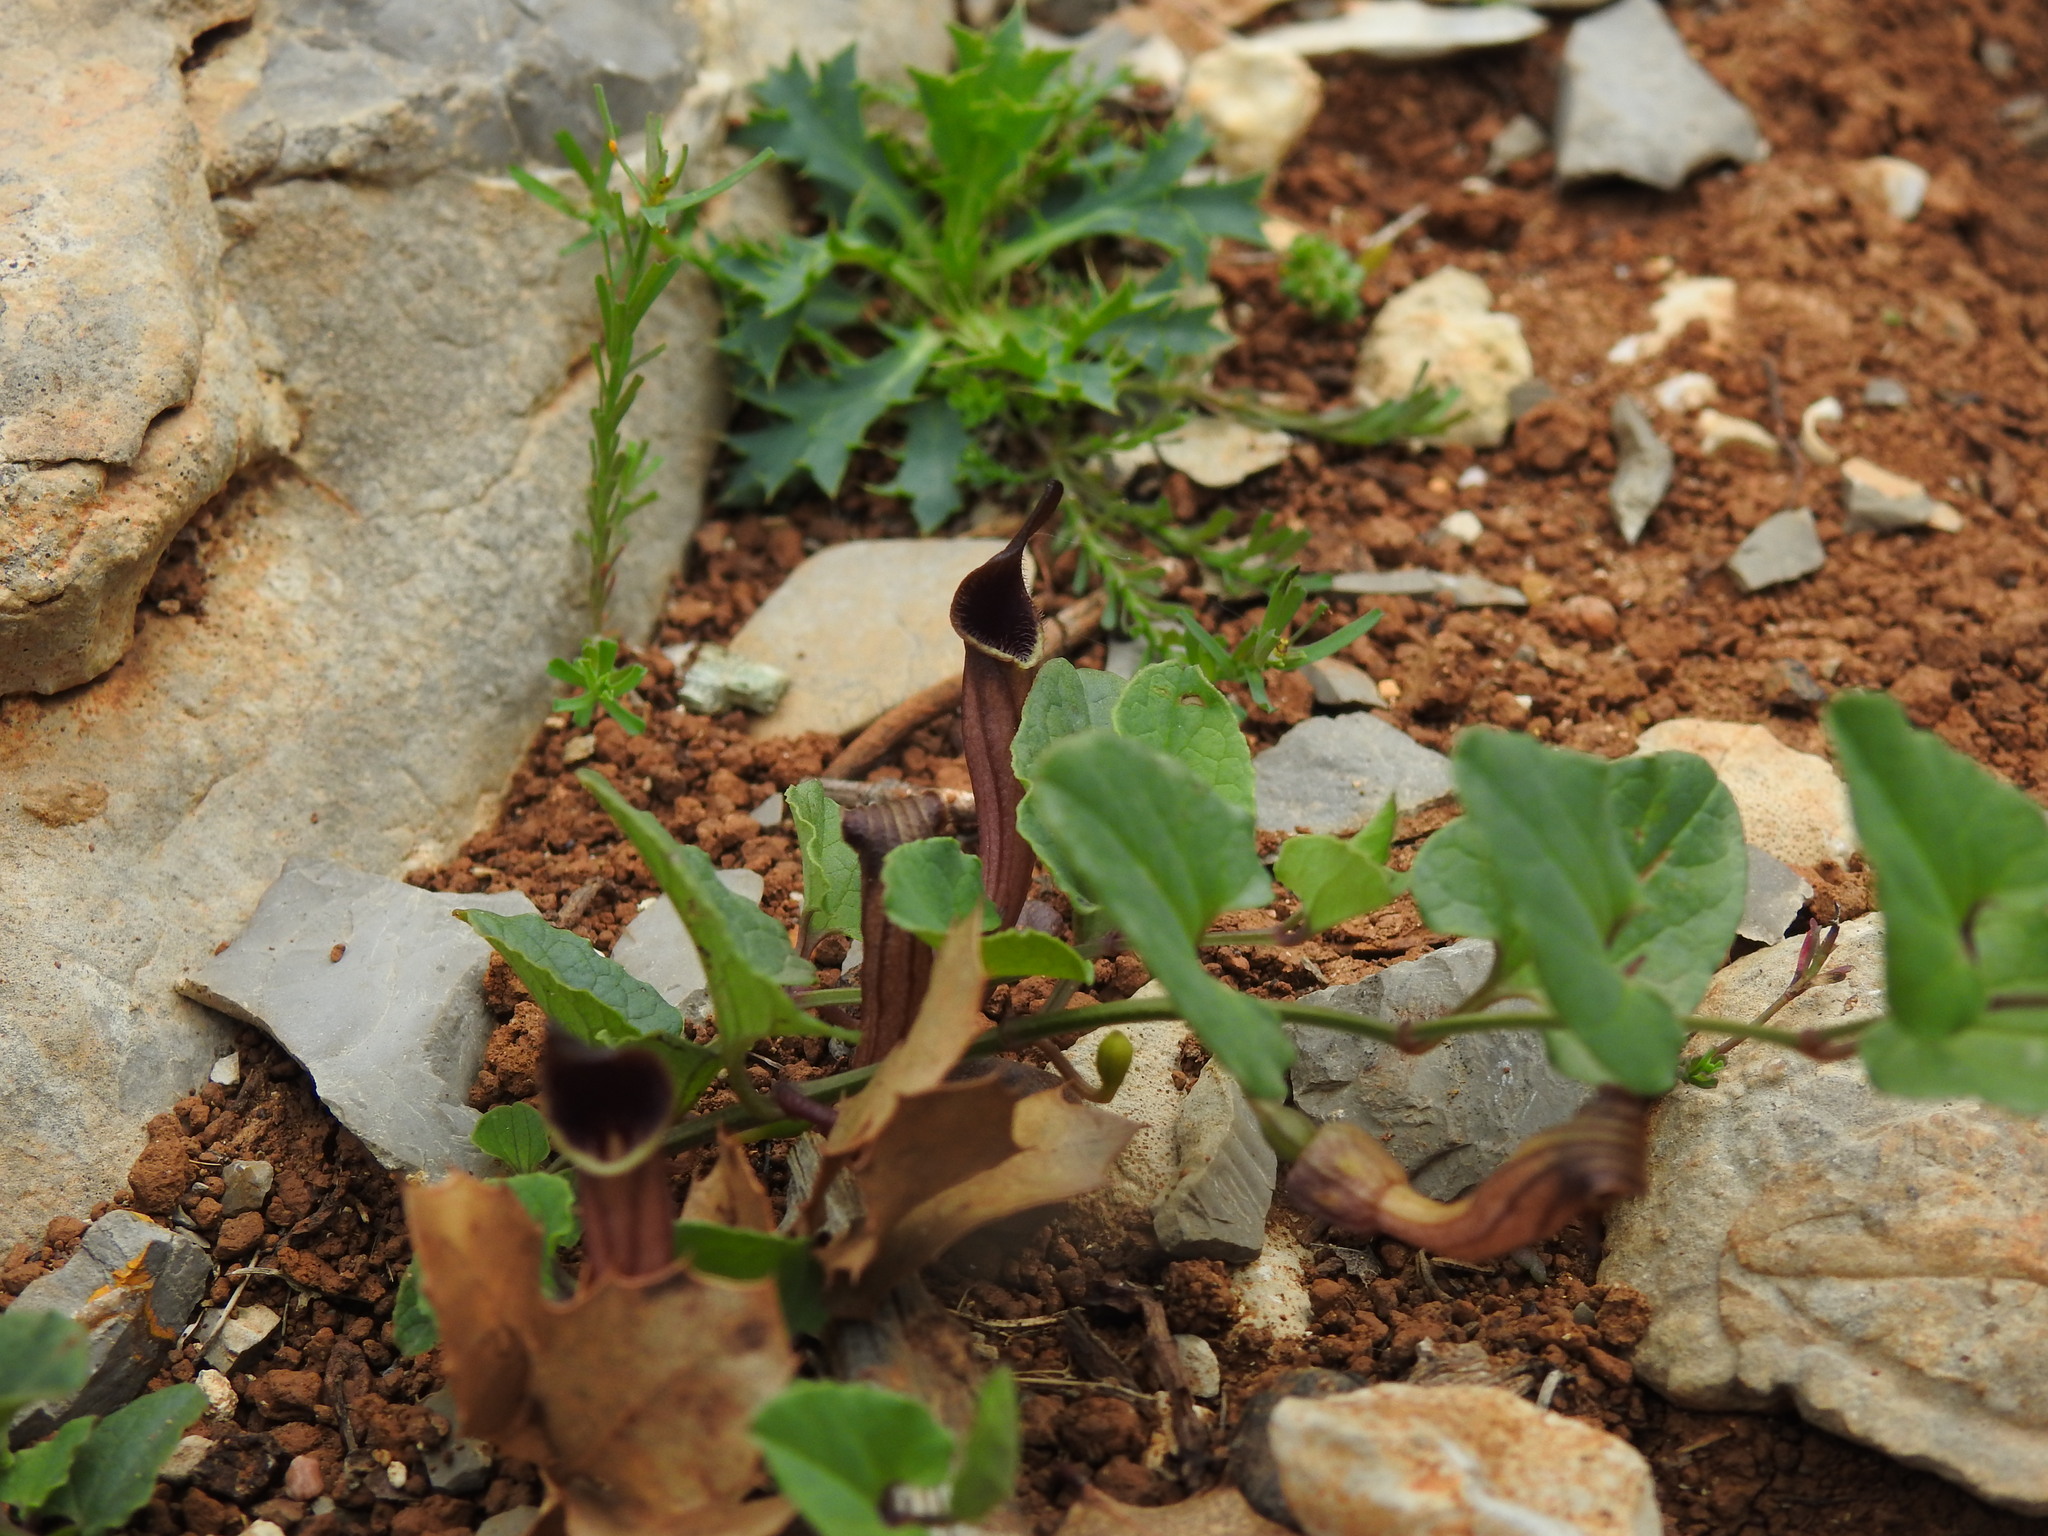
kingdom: Plantae
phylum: Tracheophyta
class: Magnoliopsida
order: Piperales
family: Aristolochiaceae
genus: Aristolochia
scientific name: Aristolochia paucinervis
